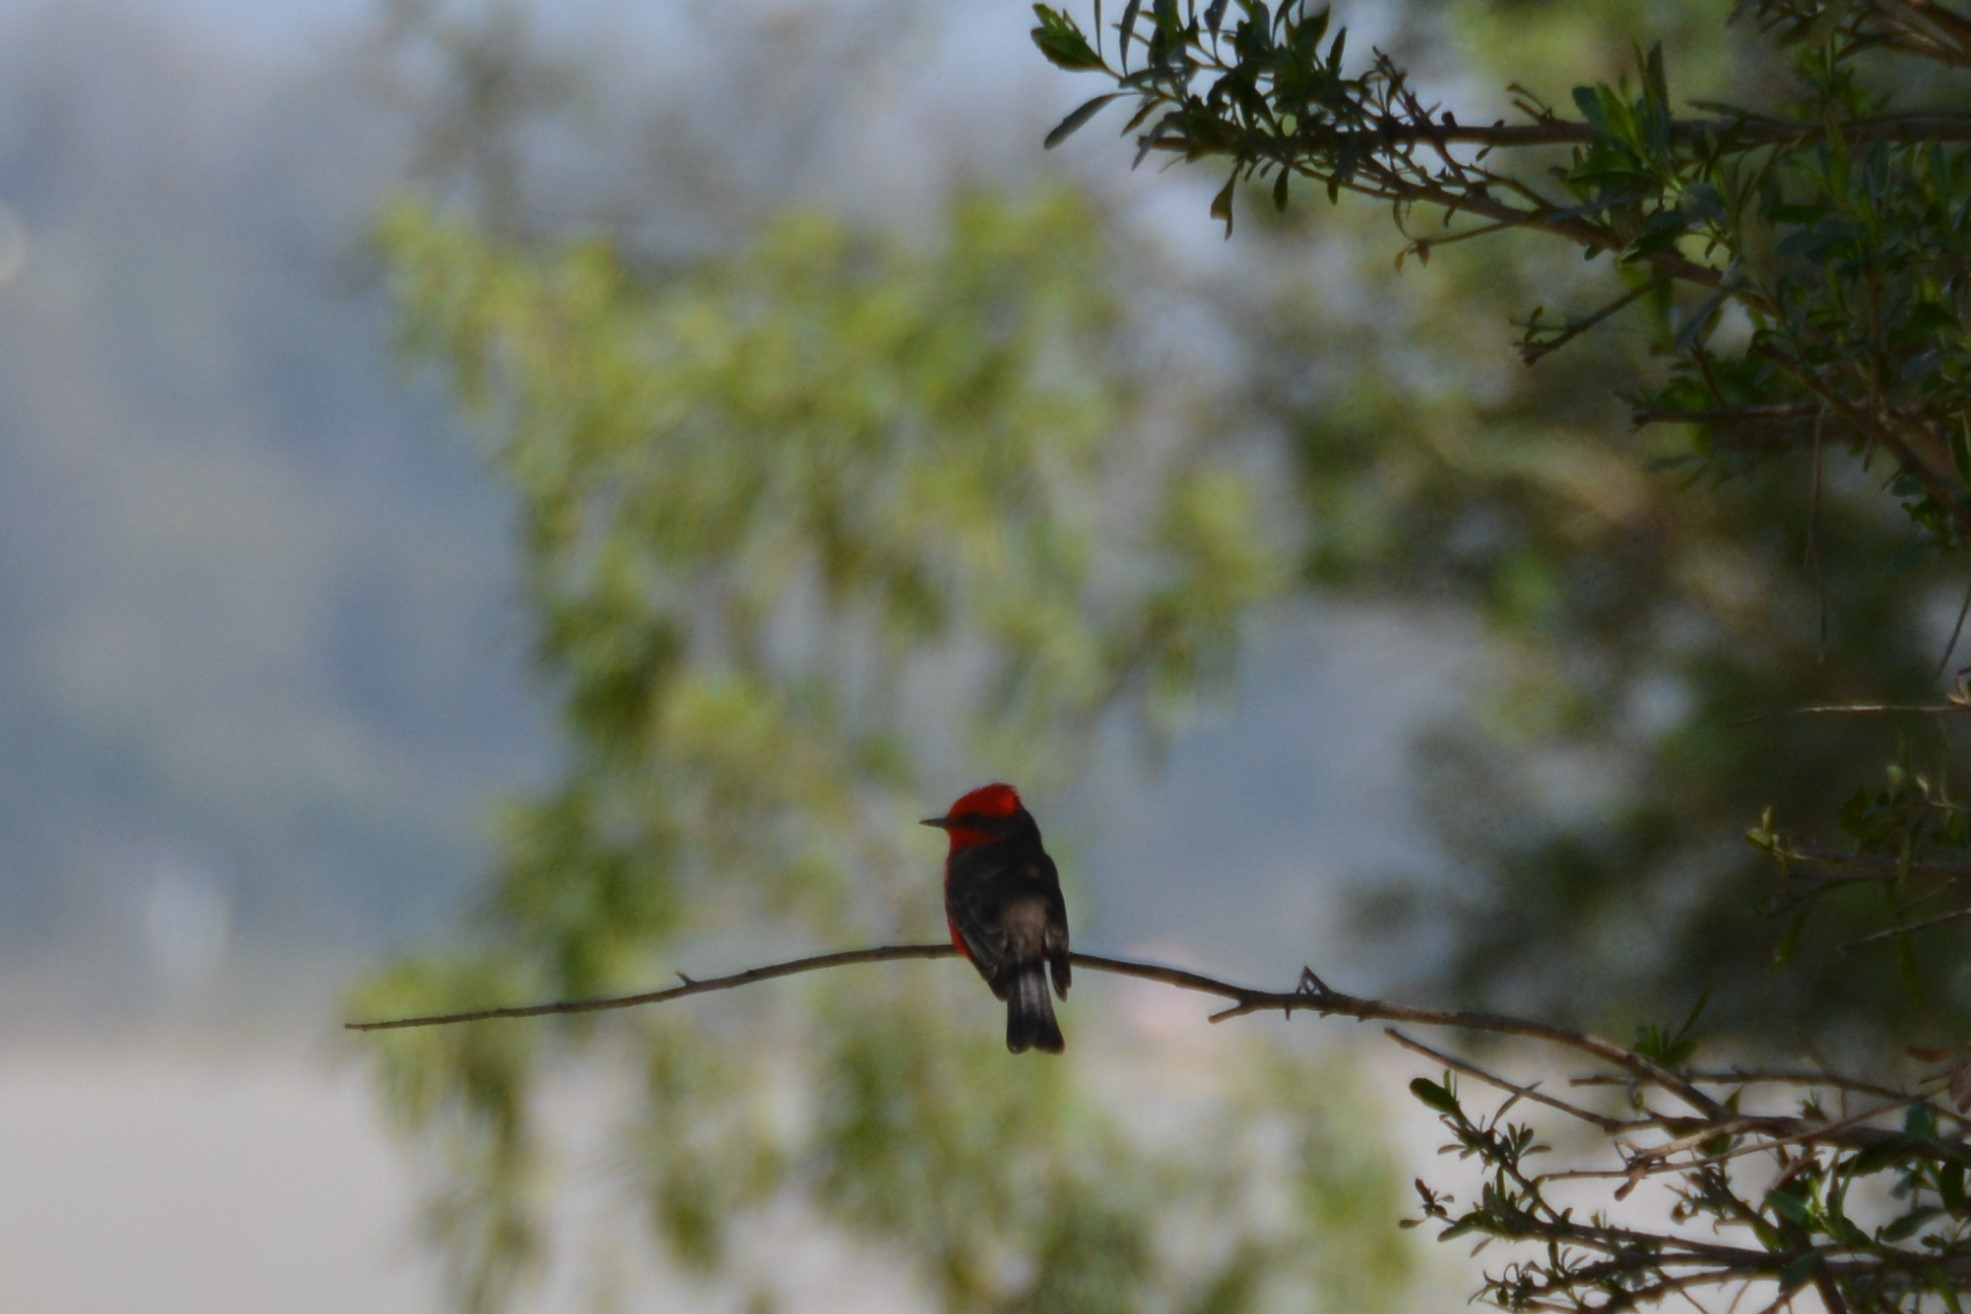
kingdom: Animalia
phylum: Chordata
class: Aves
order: Passeriformes
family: Tyrannidae
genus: Pyrocephalus
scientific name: Pyrocephalus rubinus
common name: Vermilion flycatcher
